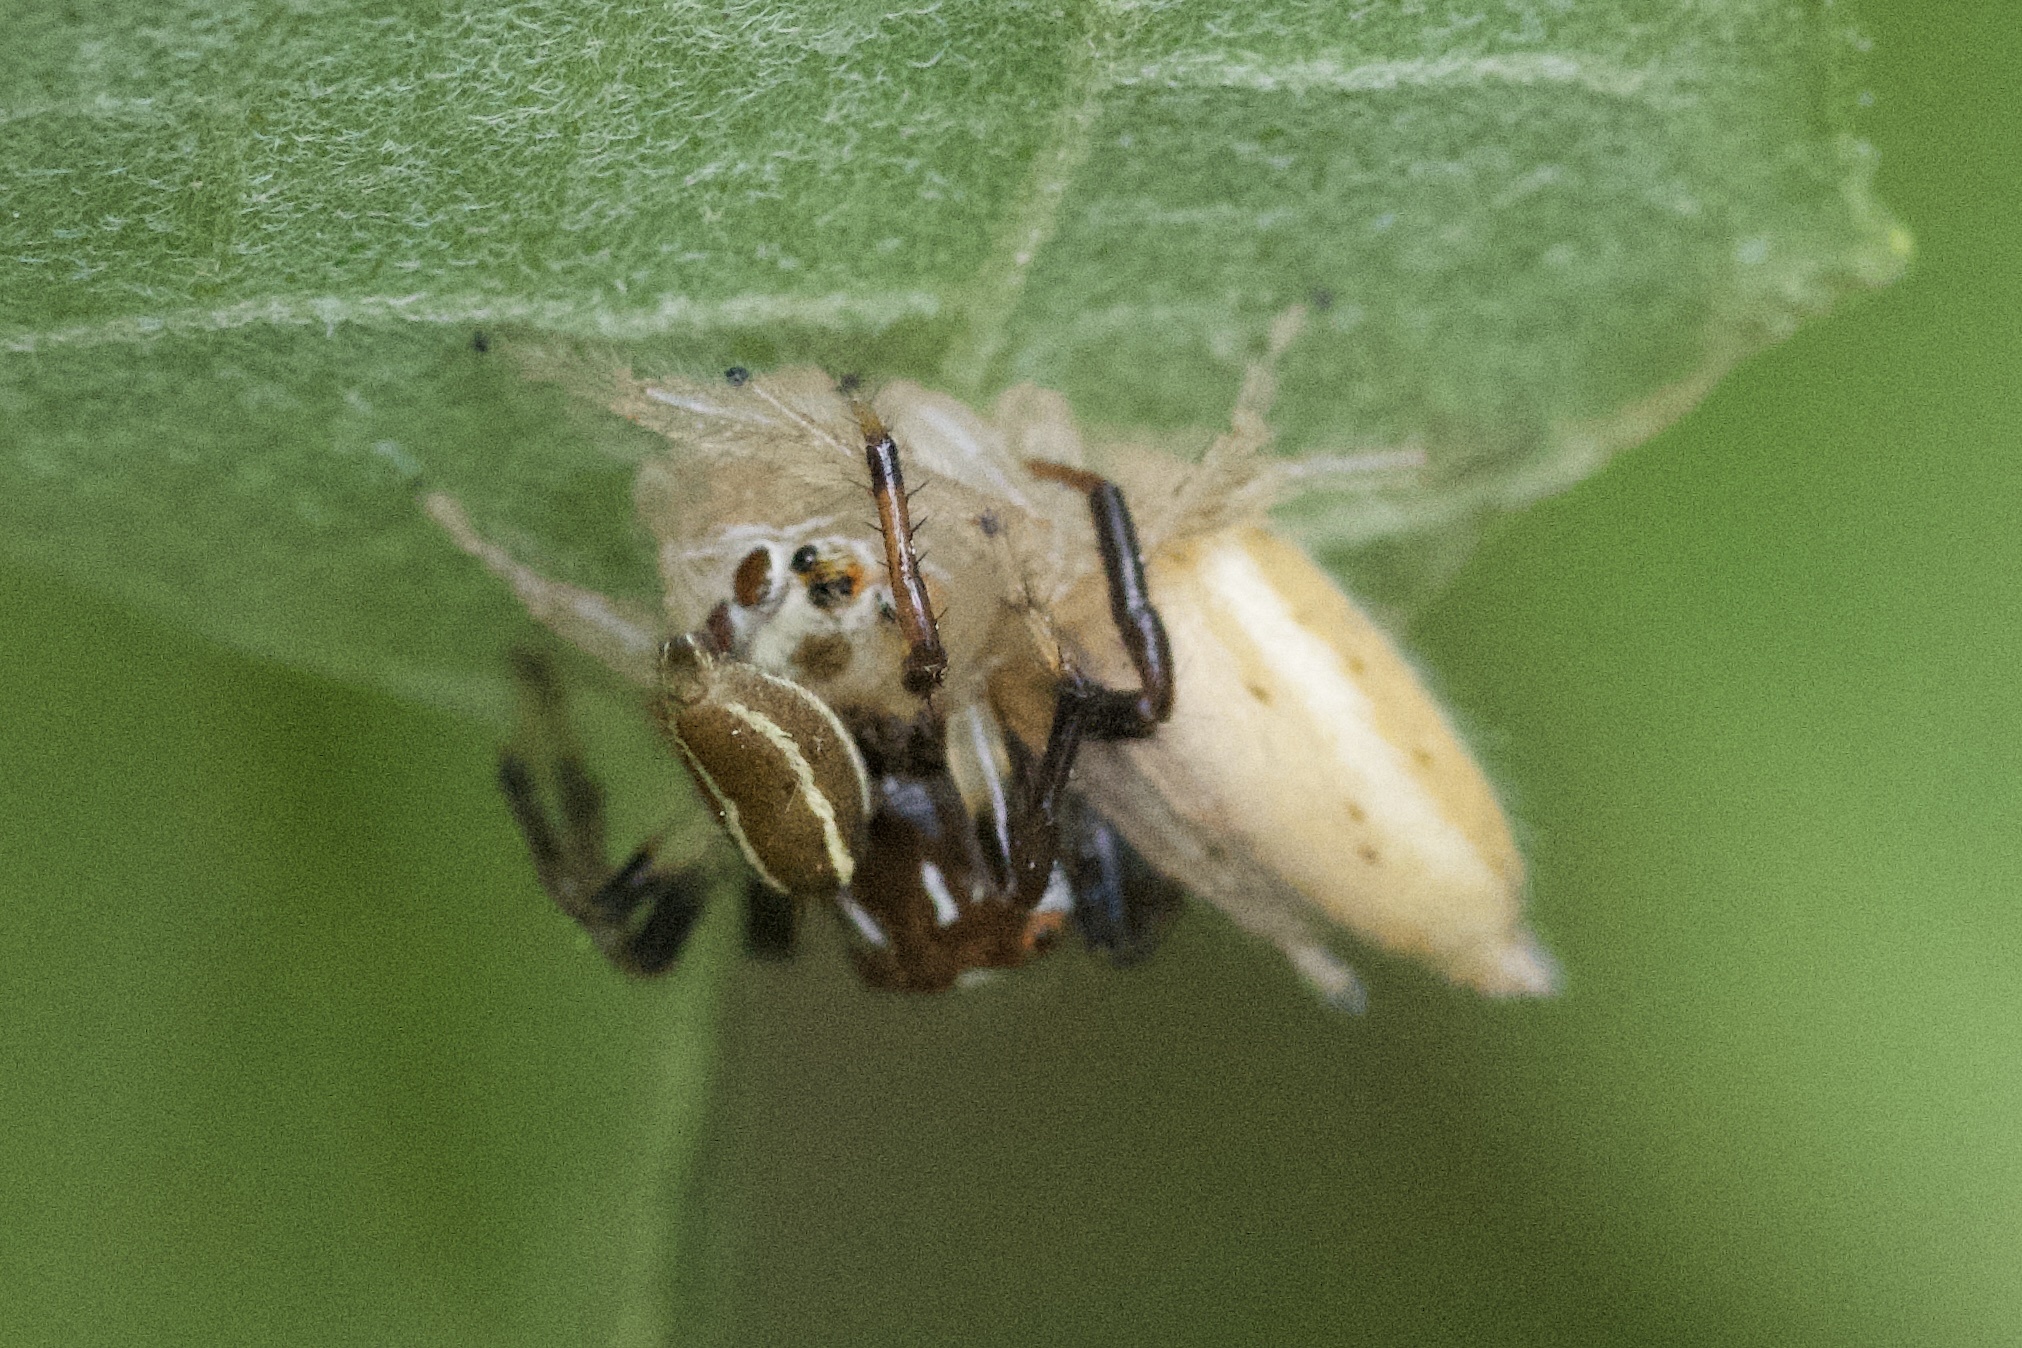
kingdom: Animalia
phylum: Arthropoda
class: Arachnida
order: Araneae
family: Salticidae
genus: Colonus
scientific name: Colonus sylvanus
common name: Jumping spiders
